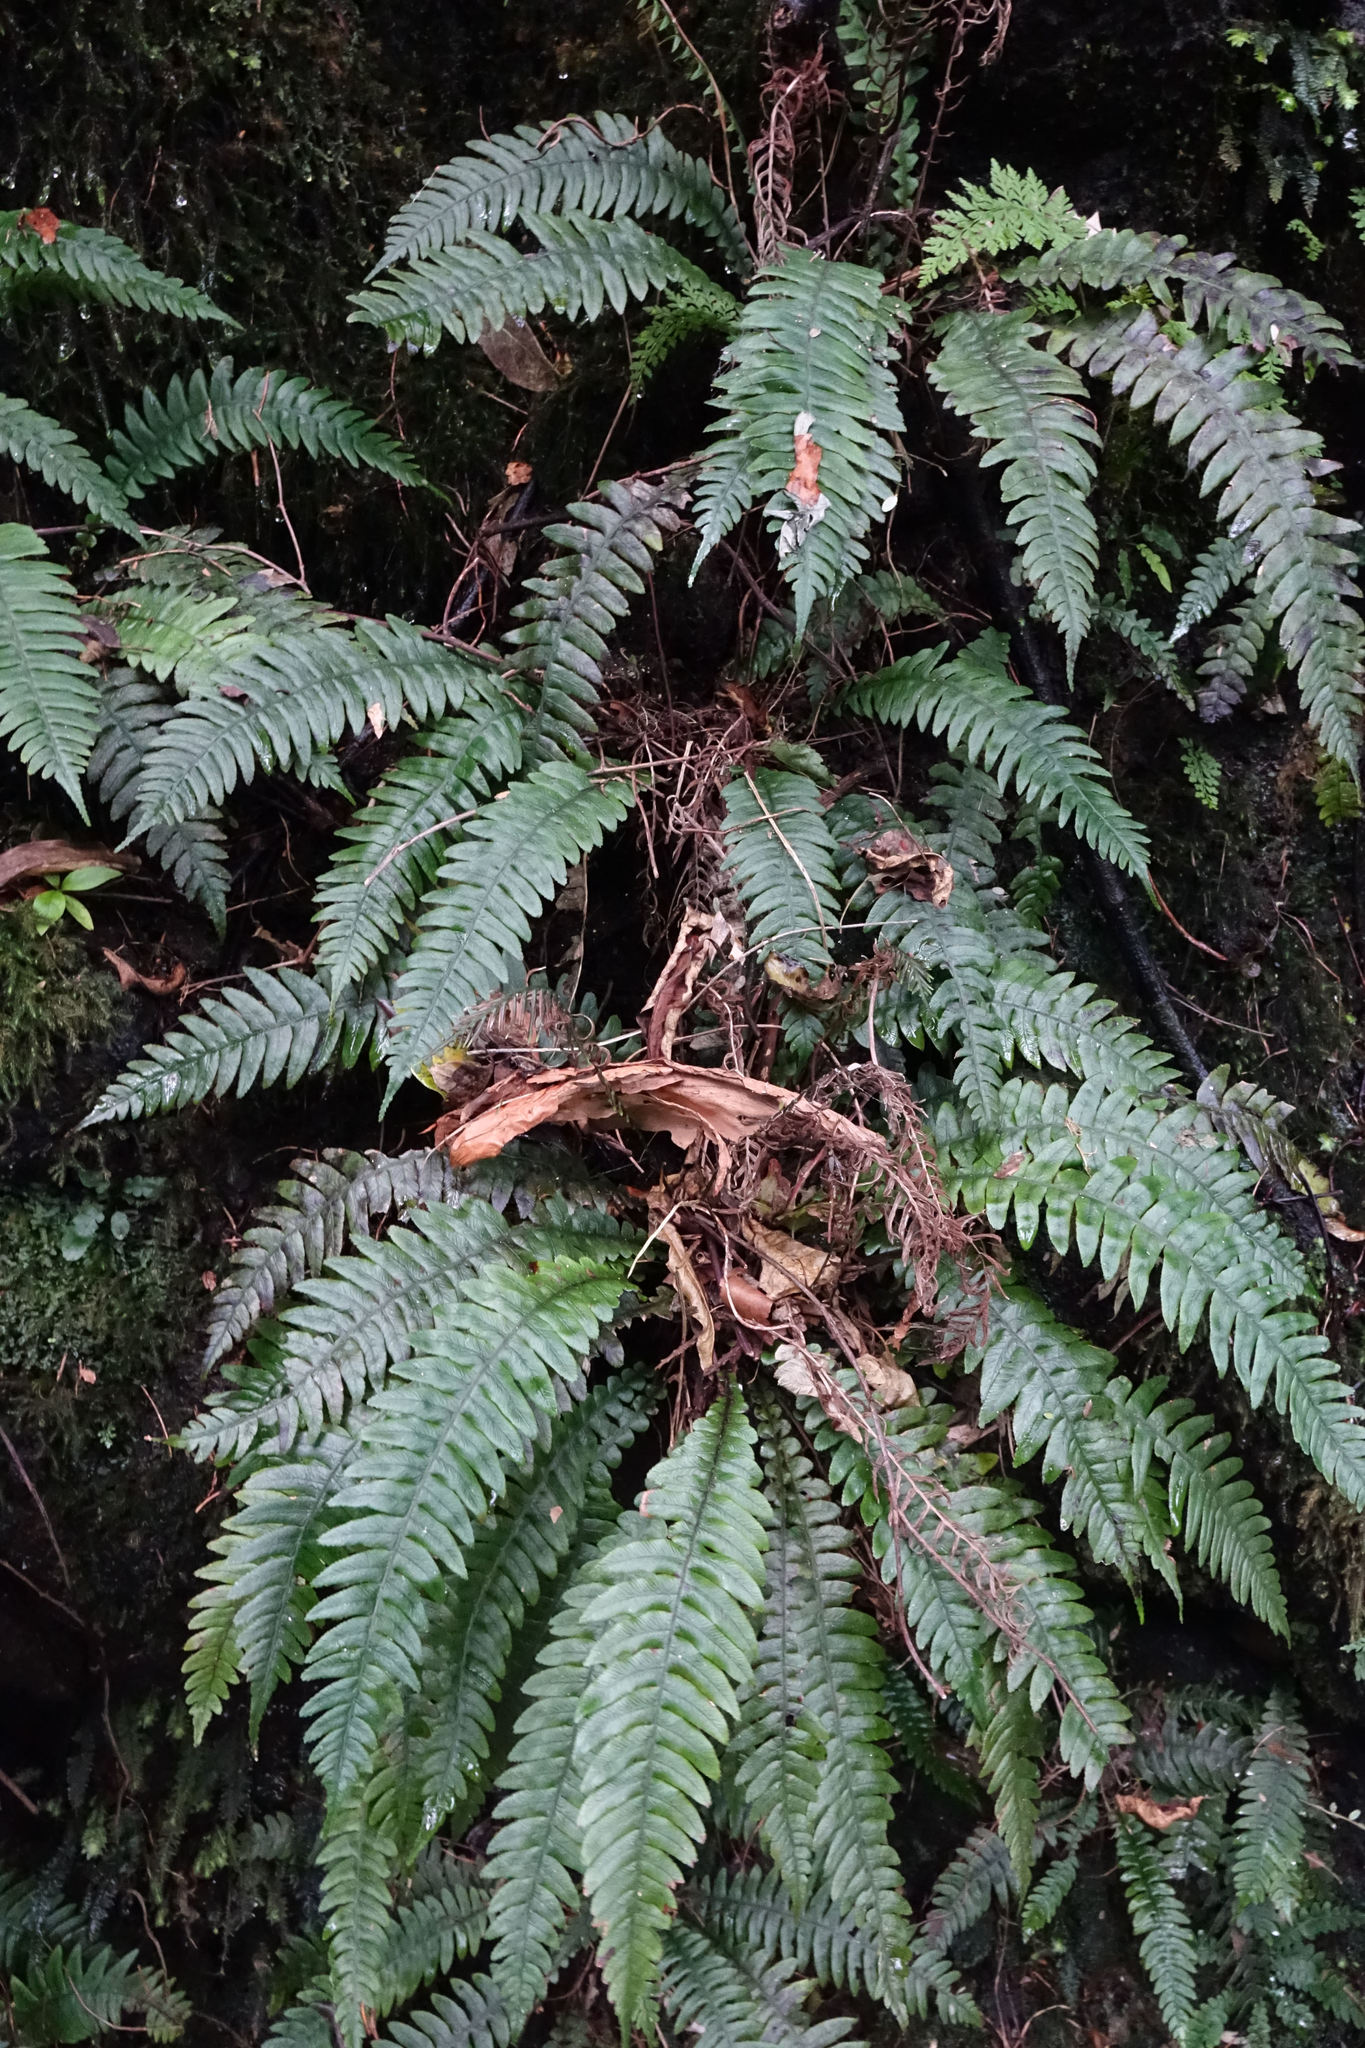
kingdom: Plantae
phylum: Tracheophyta
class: Polypodiopsida
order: Polypodiales
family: Blechnaceae
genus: Austroblechnum
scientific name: Austroblechnum lanceolatum
